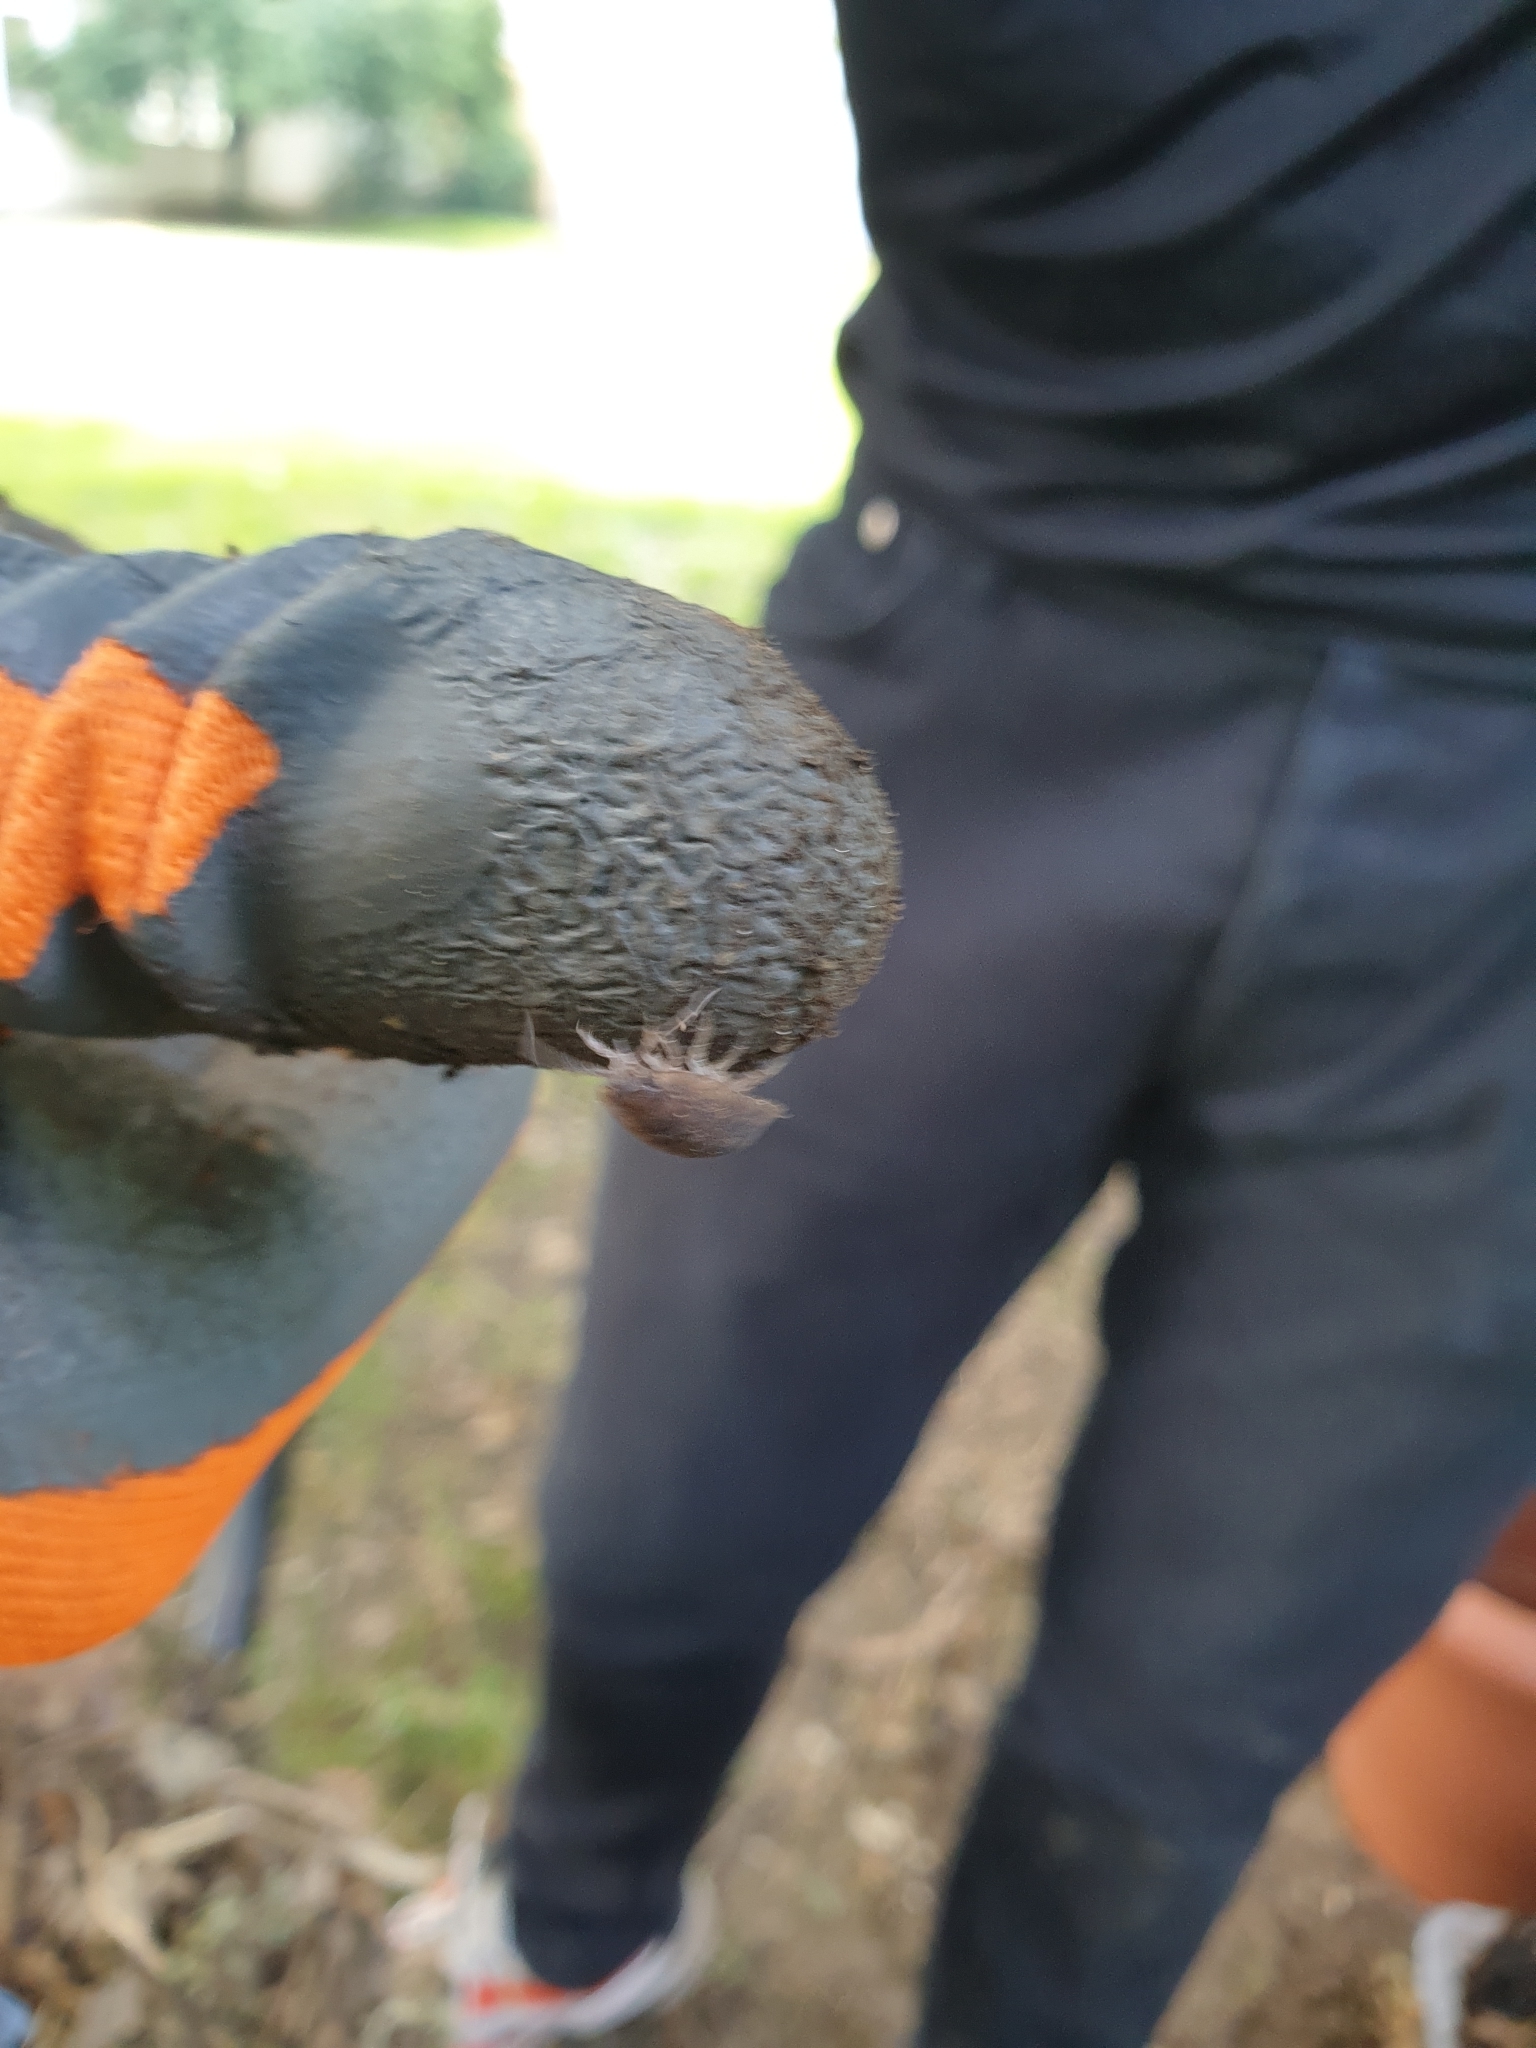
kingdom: Animalia
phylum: Arthropoda
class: Malacostraca
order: Isopoda
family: Porcellionidae
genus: Porcellio
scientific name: Porcellio scaber
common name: Common rough woodlouse
